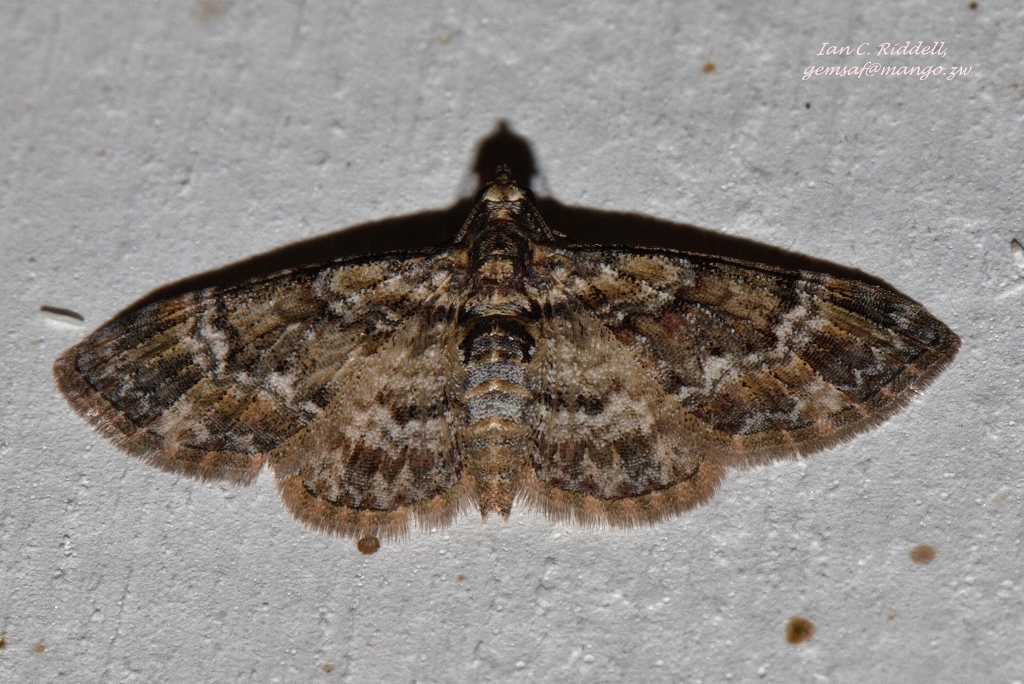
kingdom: Animalia
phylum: Arthropoda
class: Insecta
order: Lepidoptera
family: Geometridae
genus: Pasiphila
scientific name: Pasiphila derasata
